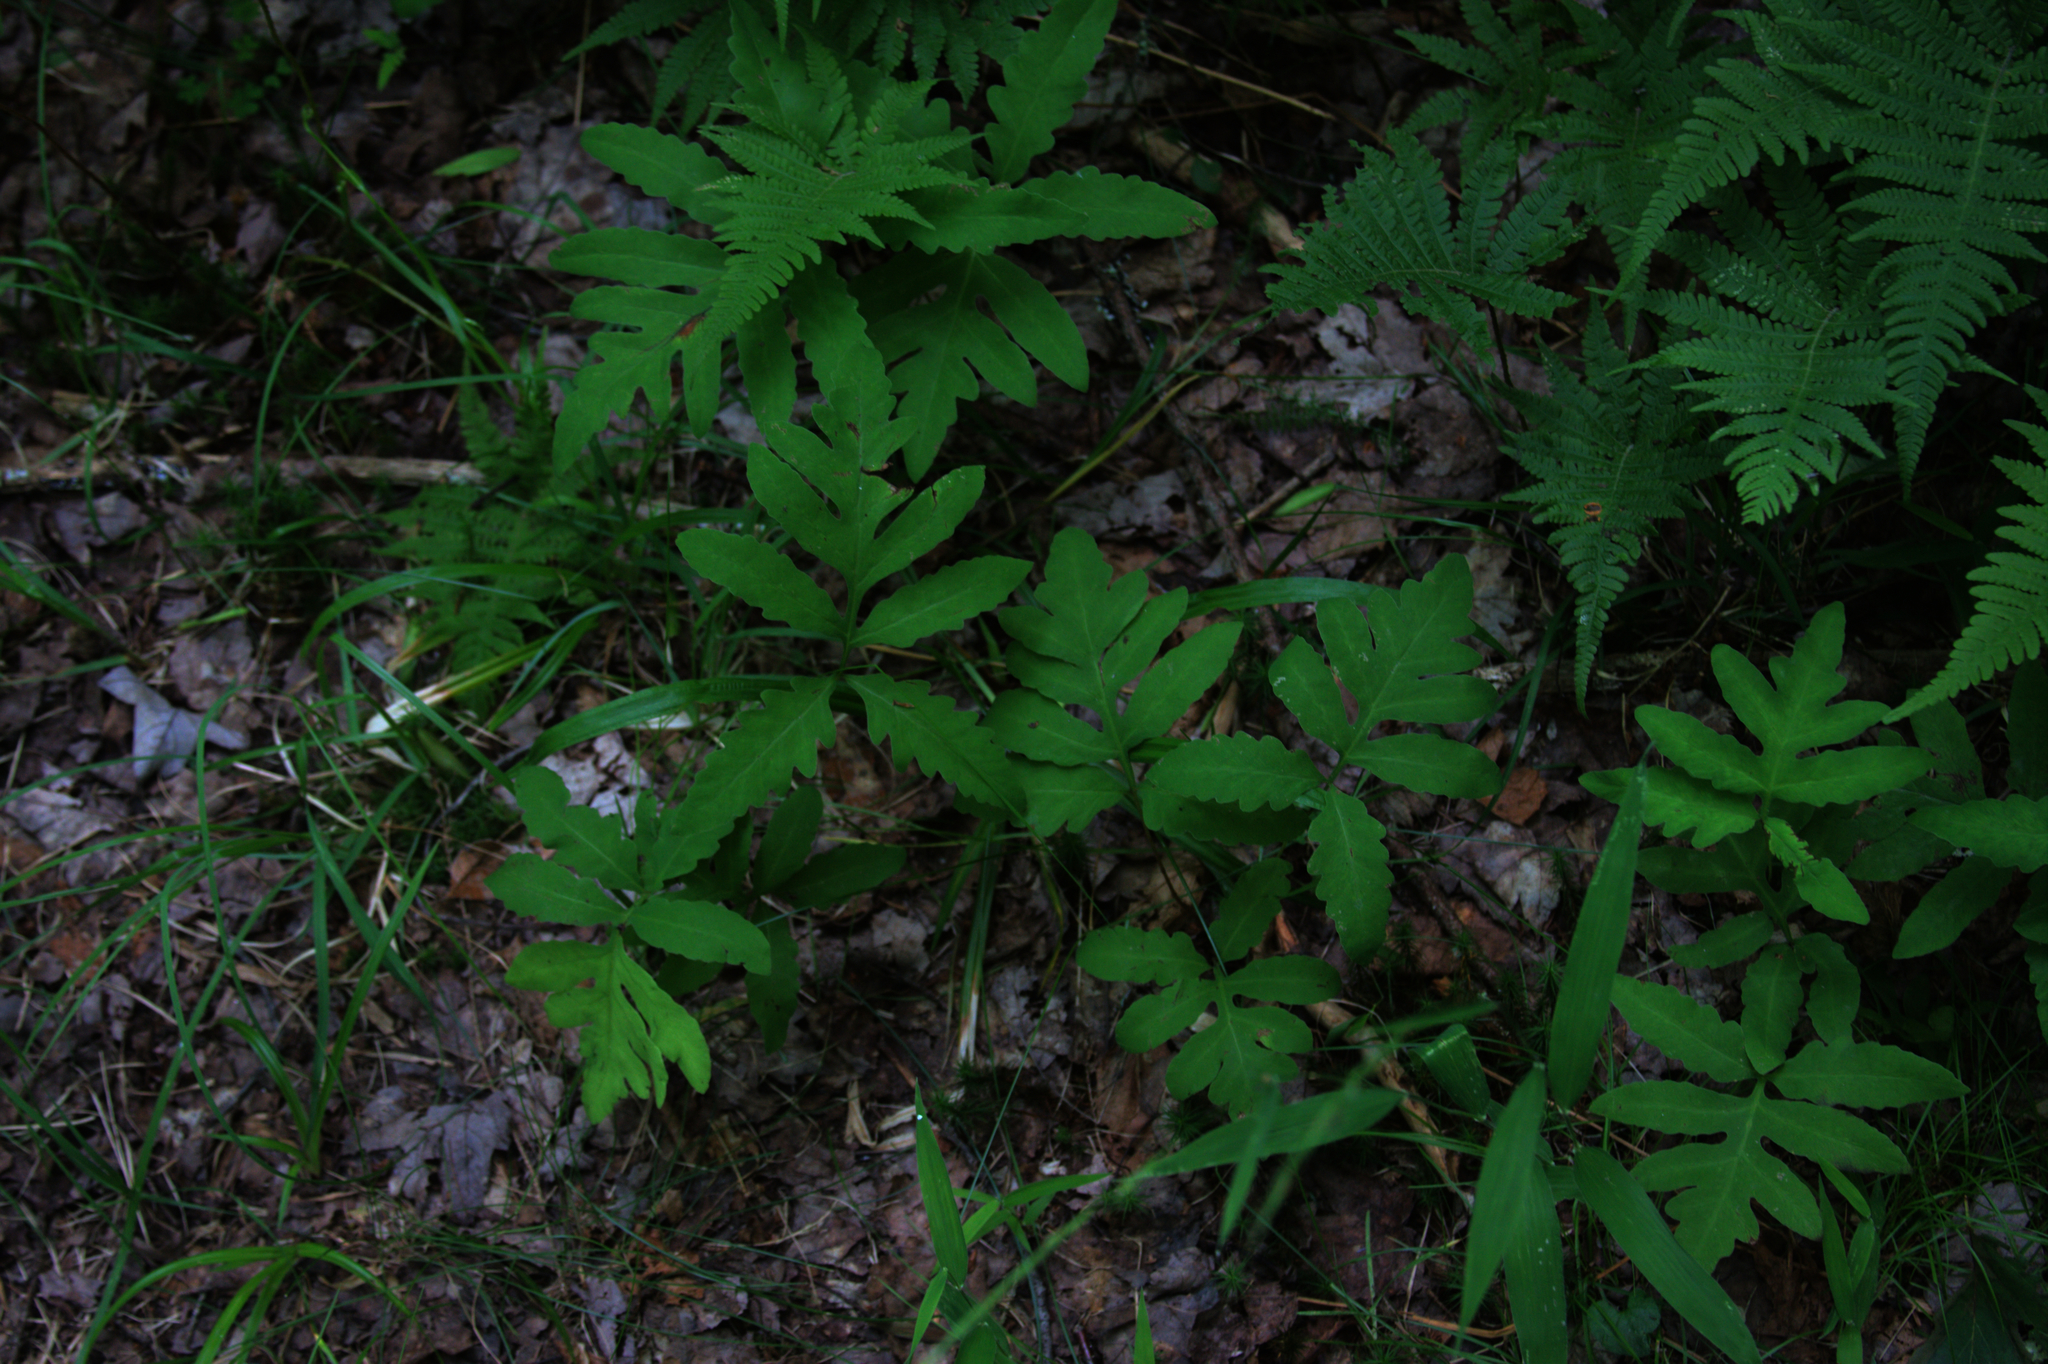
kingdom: Plantae
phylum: Tracheophyta
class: Polypodiopsida
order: Polypodiales
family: Onocleaceae
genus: Onoclea
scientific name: Onoclea sensibilis
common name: Sensitive fern
